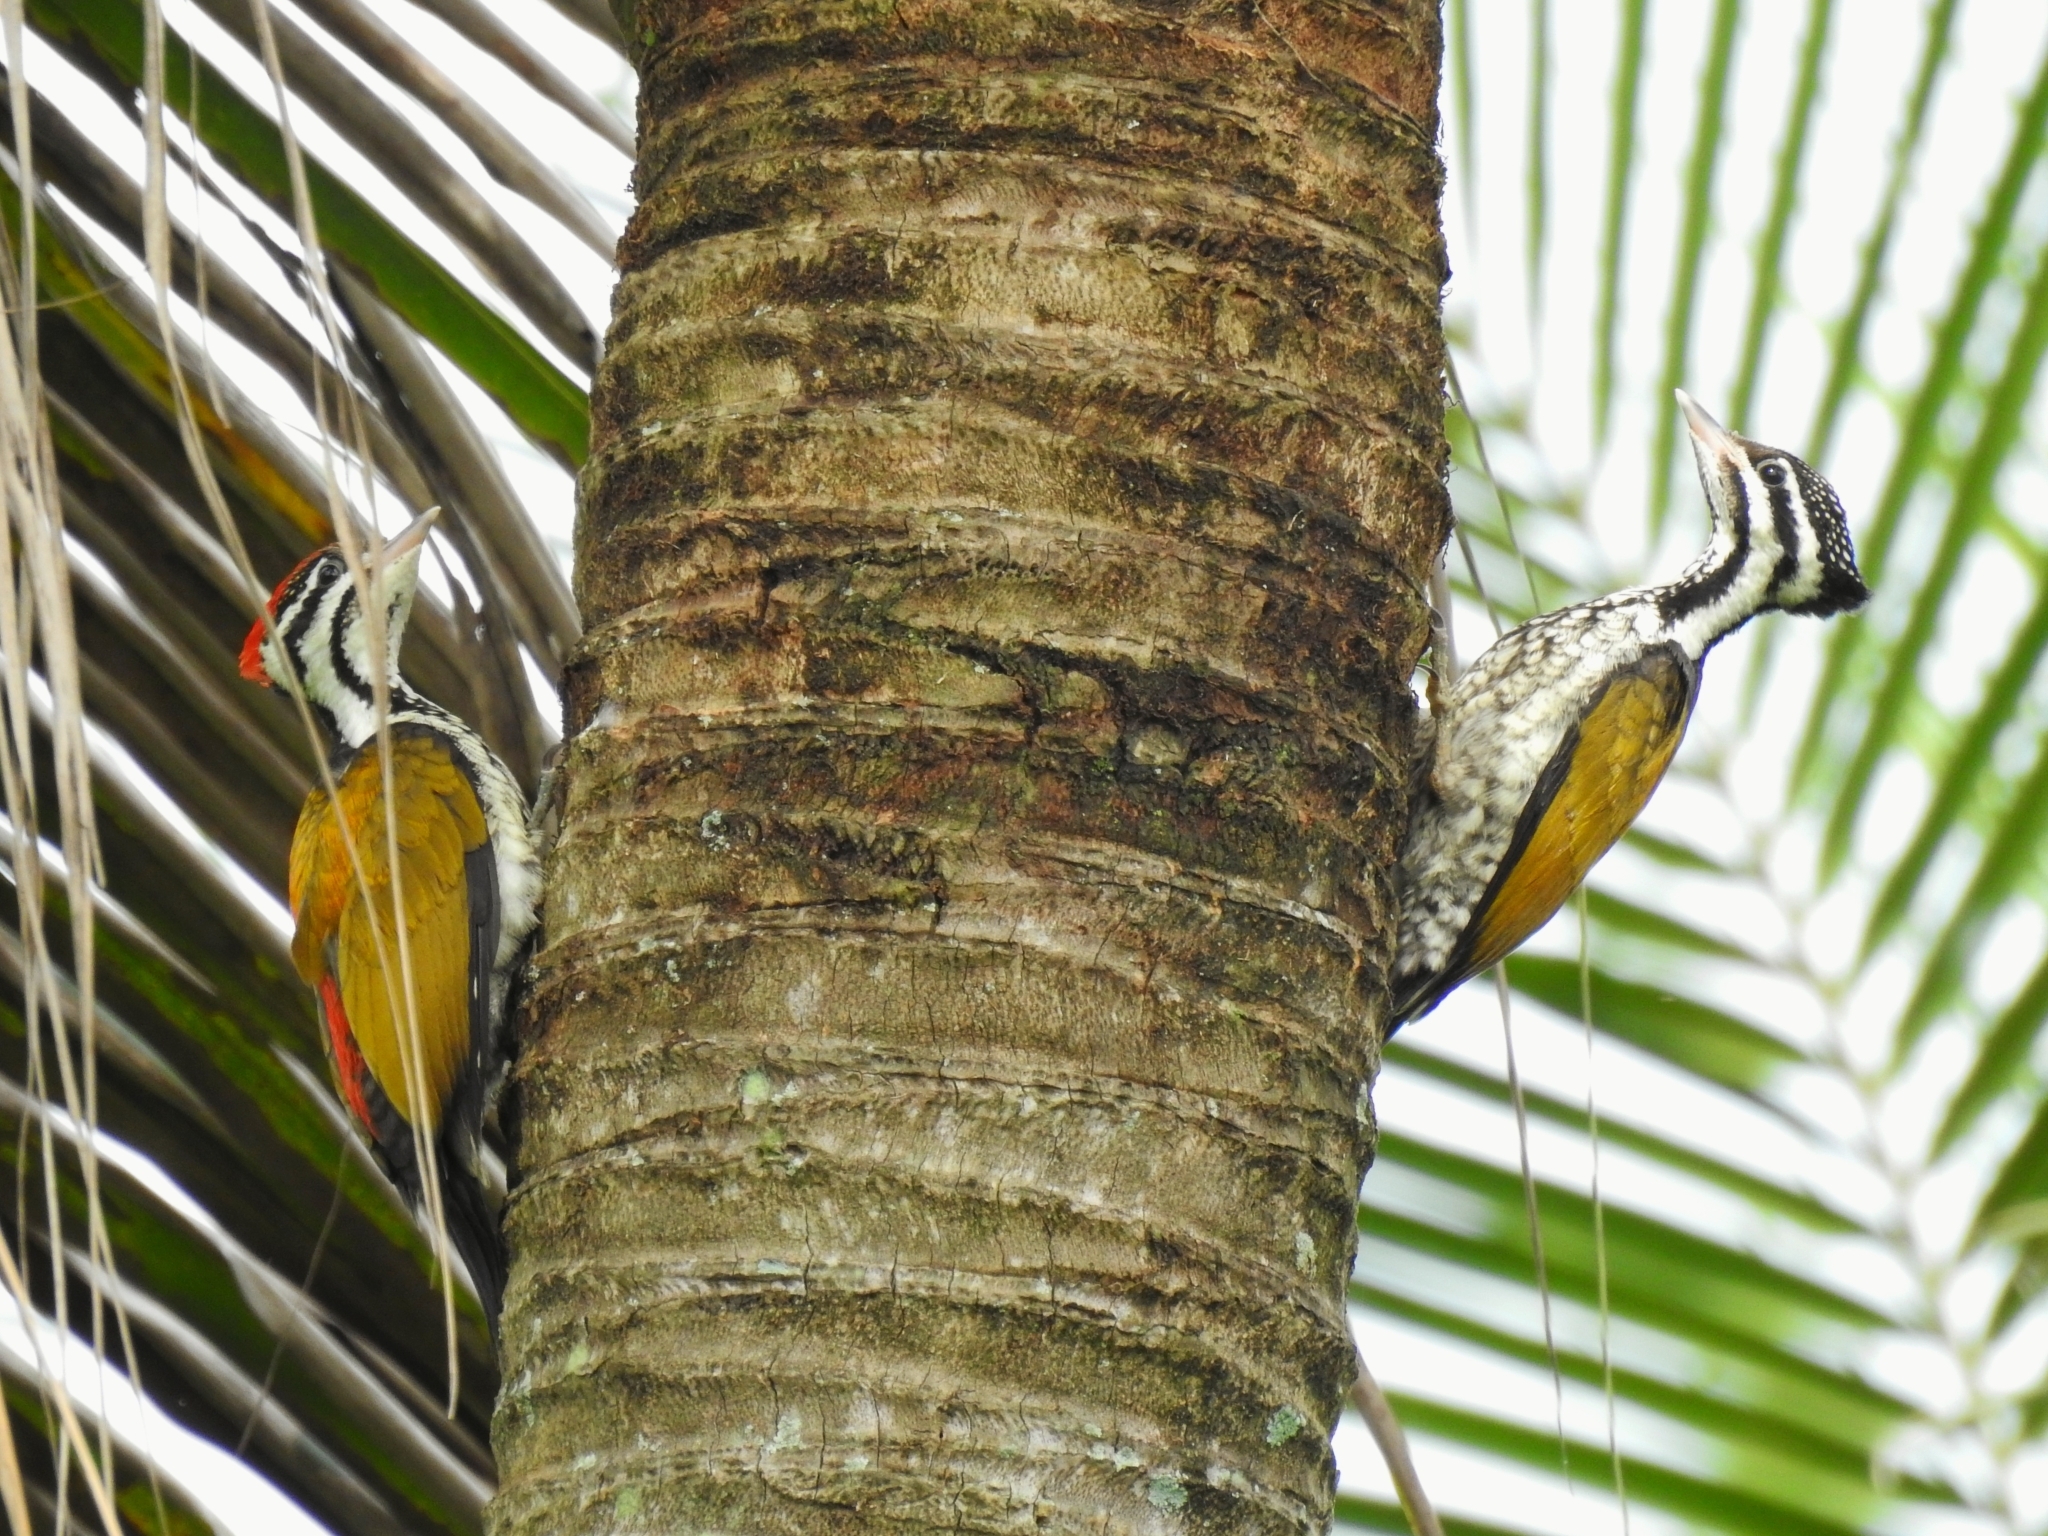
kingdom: Animalia
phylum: Chordata
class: Aves
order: Piciformes
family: Picidae
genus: Dinopium
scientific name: Dinopium javanense
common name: Common flameback
